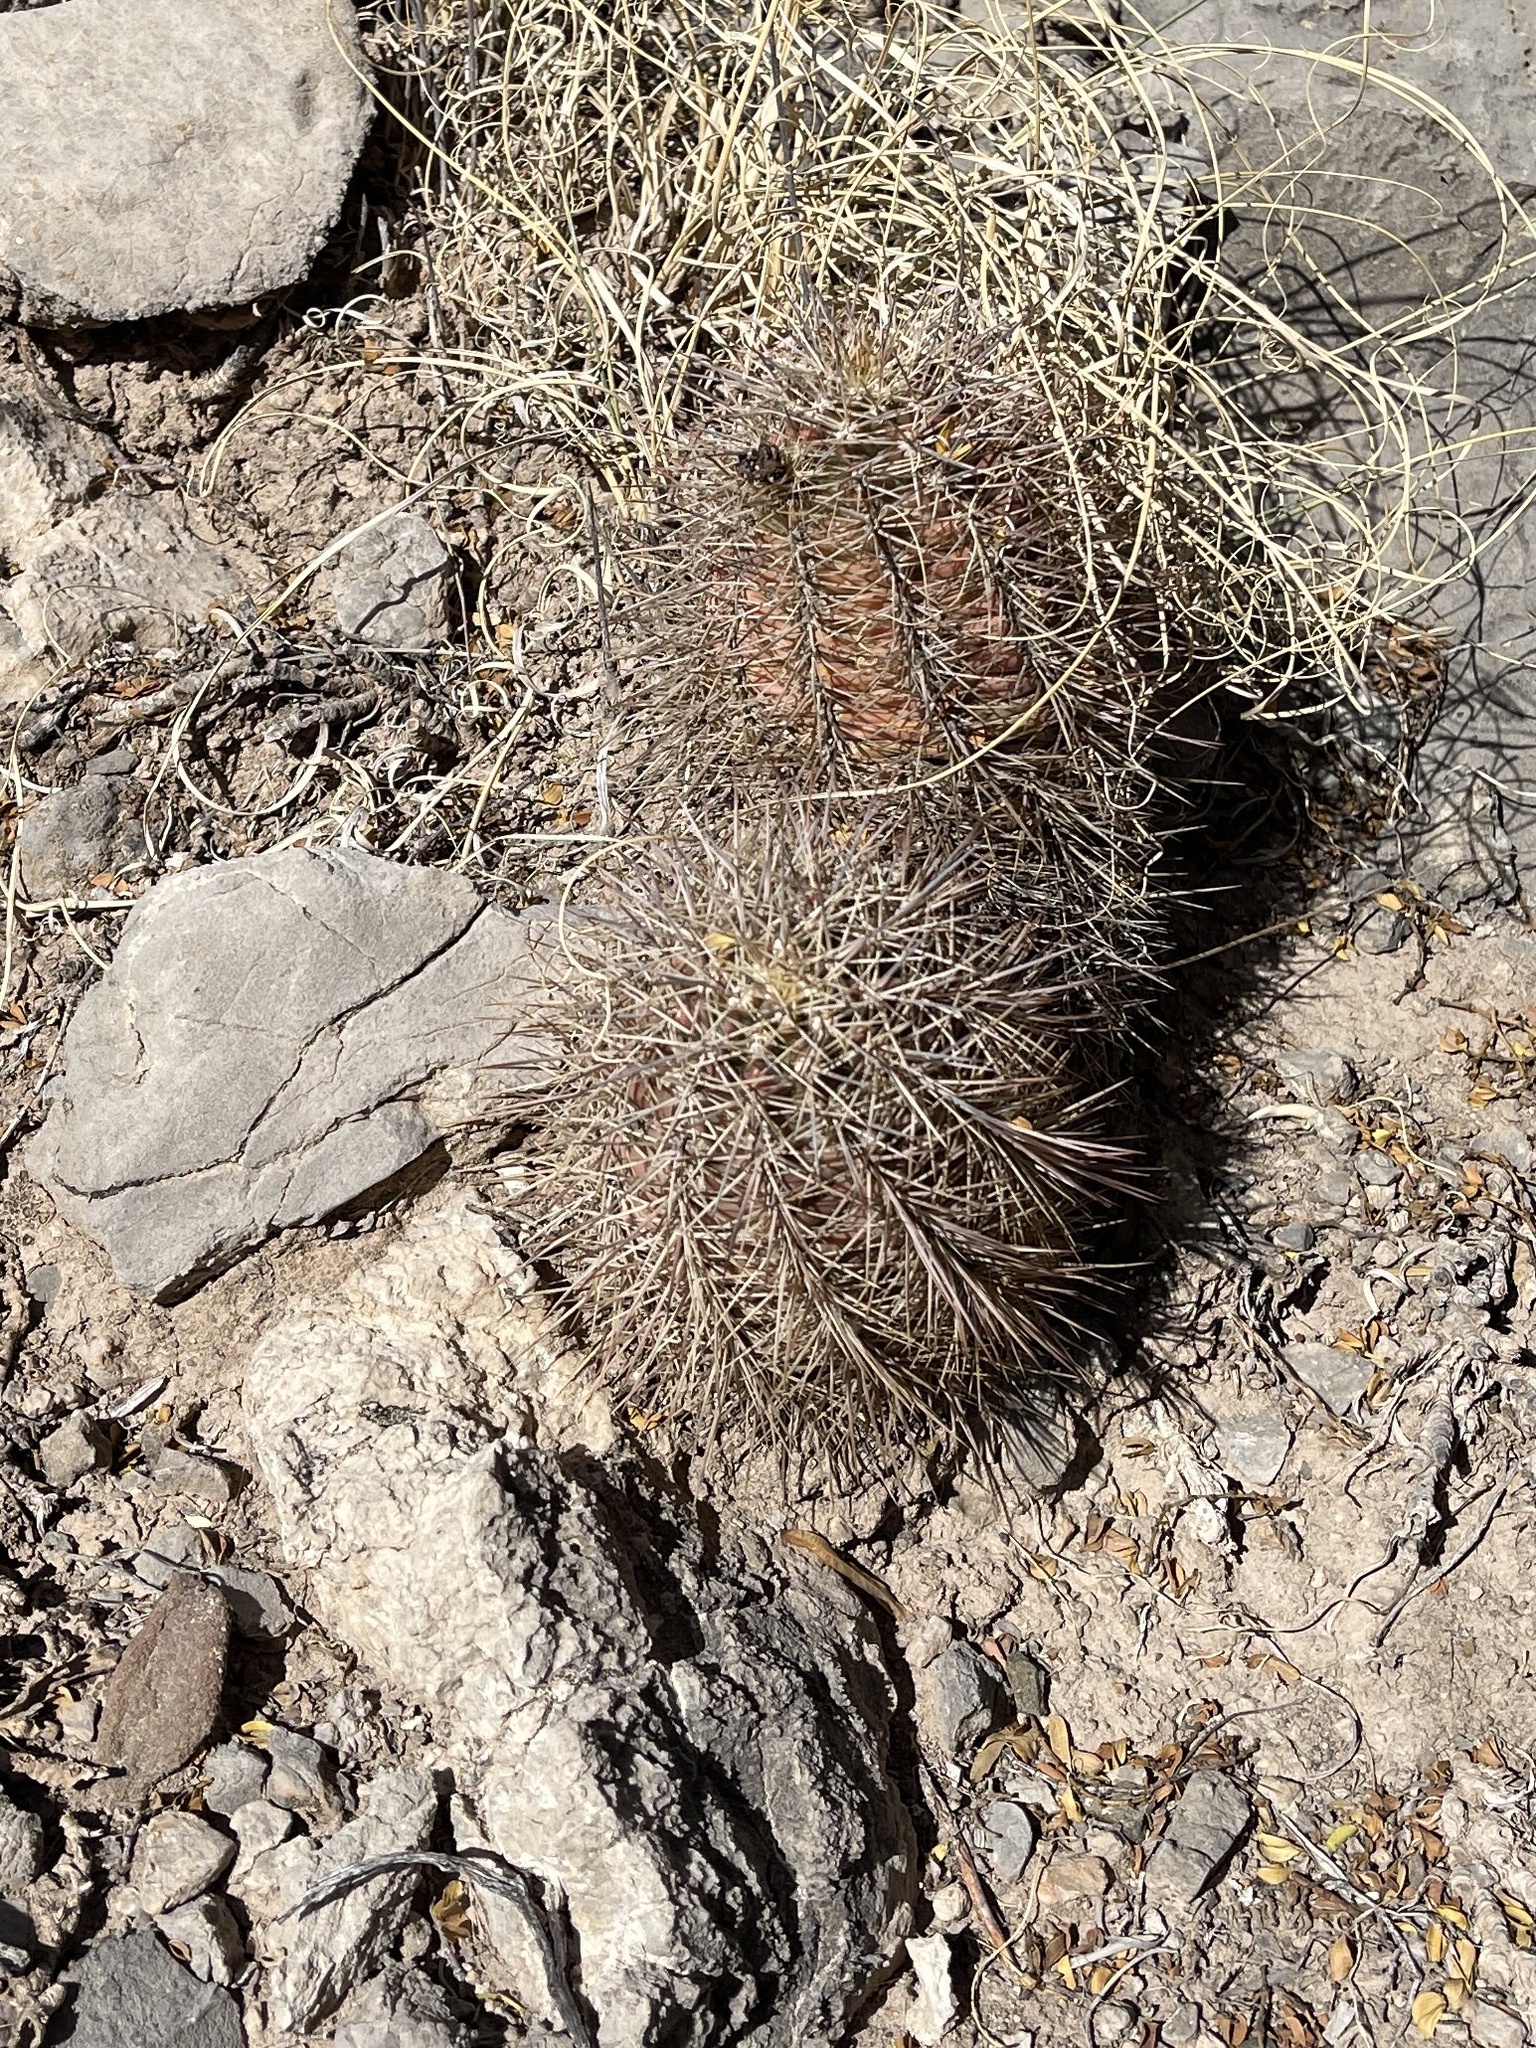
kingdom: Plantae
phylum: Tracheophyta
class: Magnoliopsida
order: Caryophyllales
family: Cactaceae
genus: Echinocereus
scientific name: Echinocereus coccineus
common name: Scarlet hedgehog cactus
